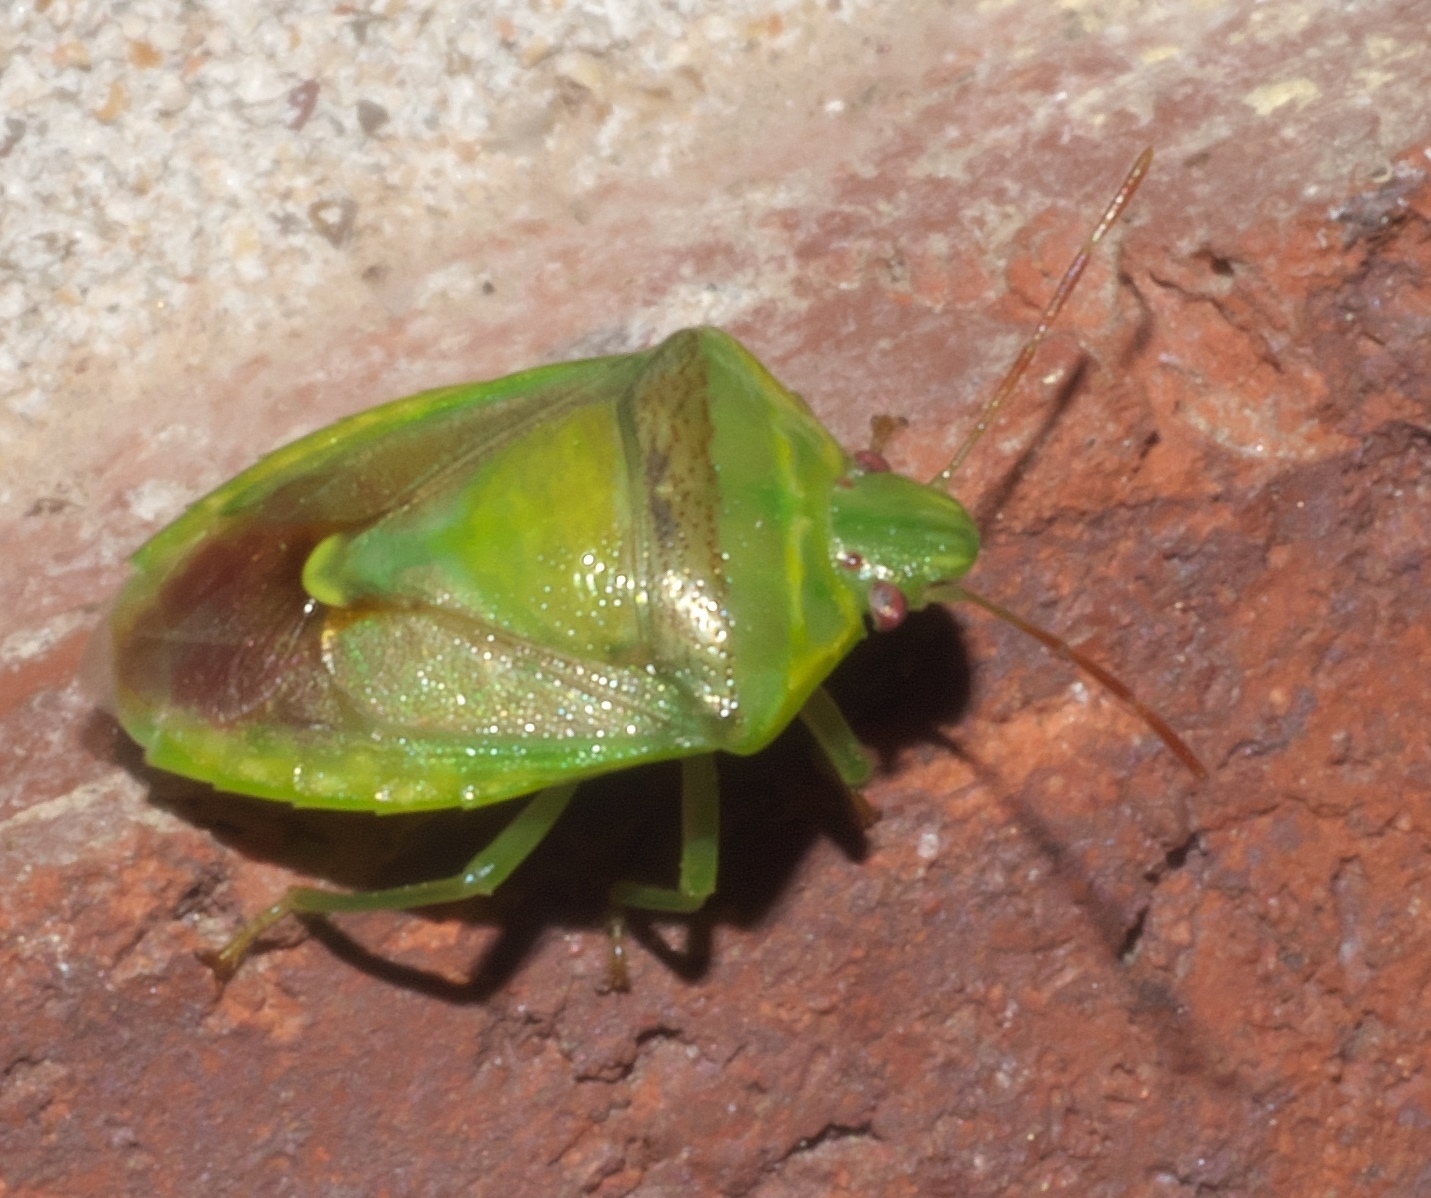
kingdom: Animalia
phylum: Arthropoda
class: Insecta
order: Hemiptera
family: Pentatomidae
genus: Banasa
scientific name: Banasa dimidiata
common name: Green burgundy stink bug
